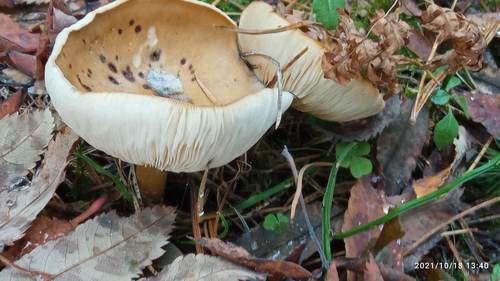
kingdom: Fungi
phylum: Basidiomycota
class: Agaricomycetes
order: Agaricales
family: Tricholomataceae
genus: Melanoleuca
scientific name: Melanoleuca
